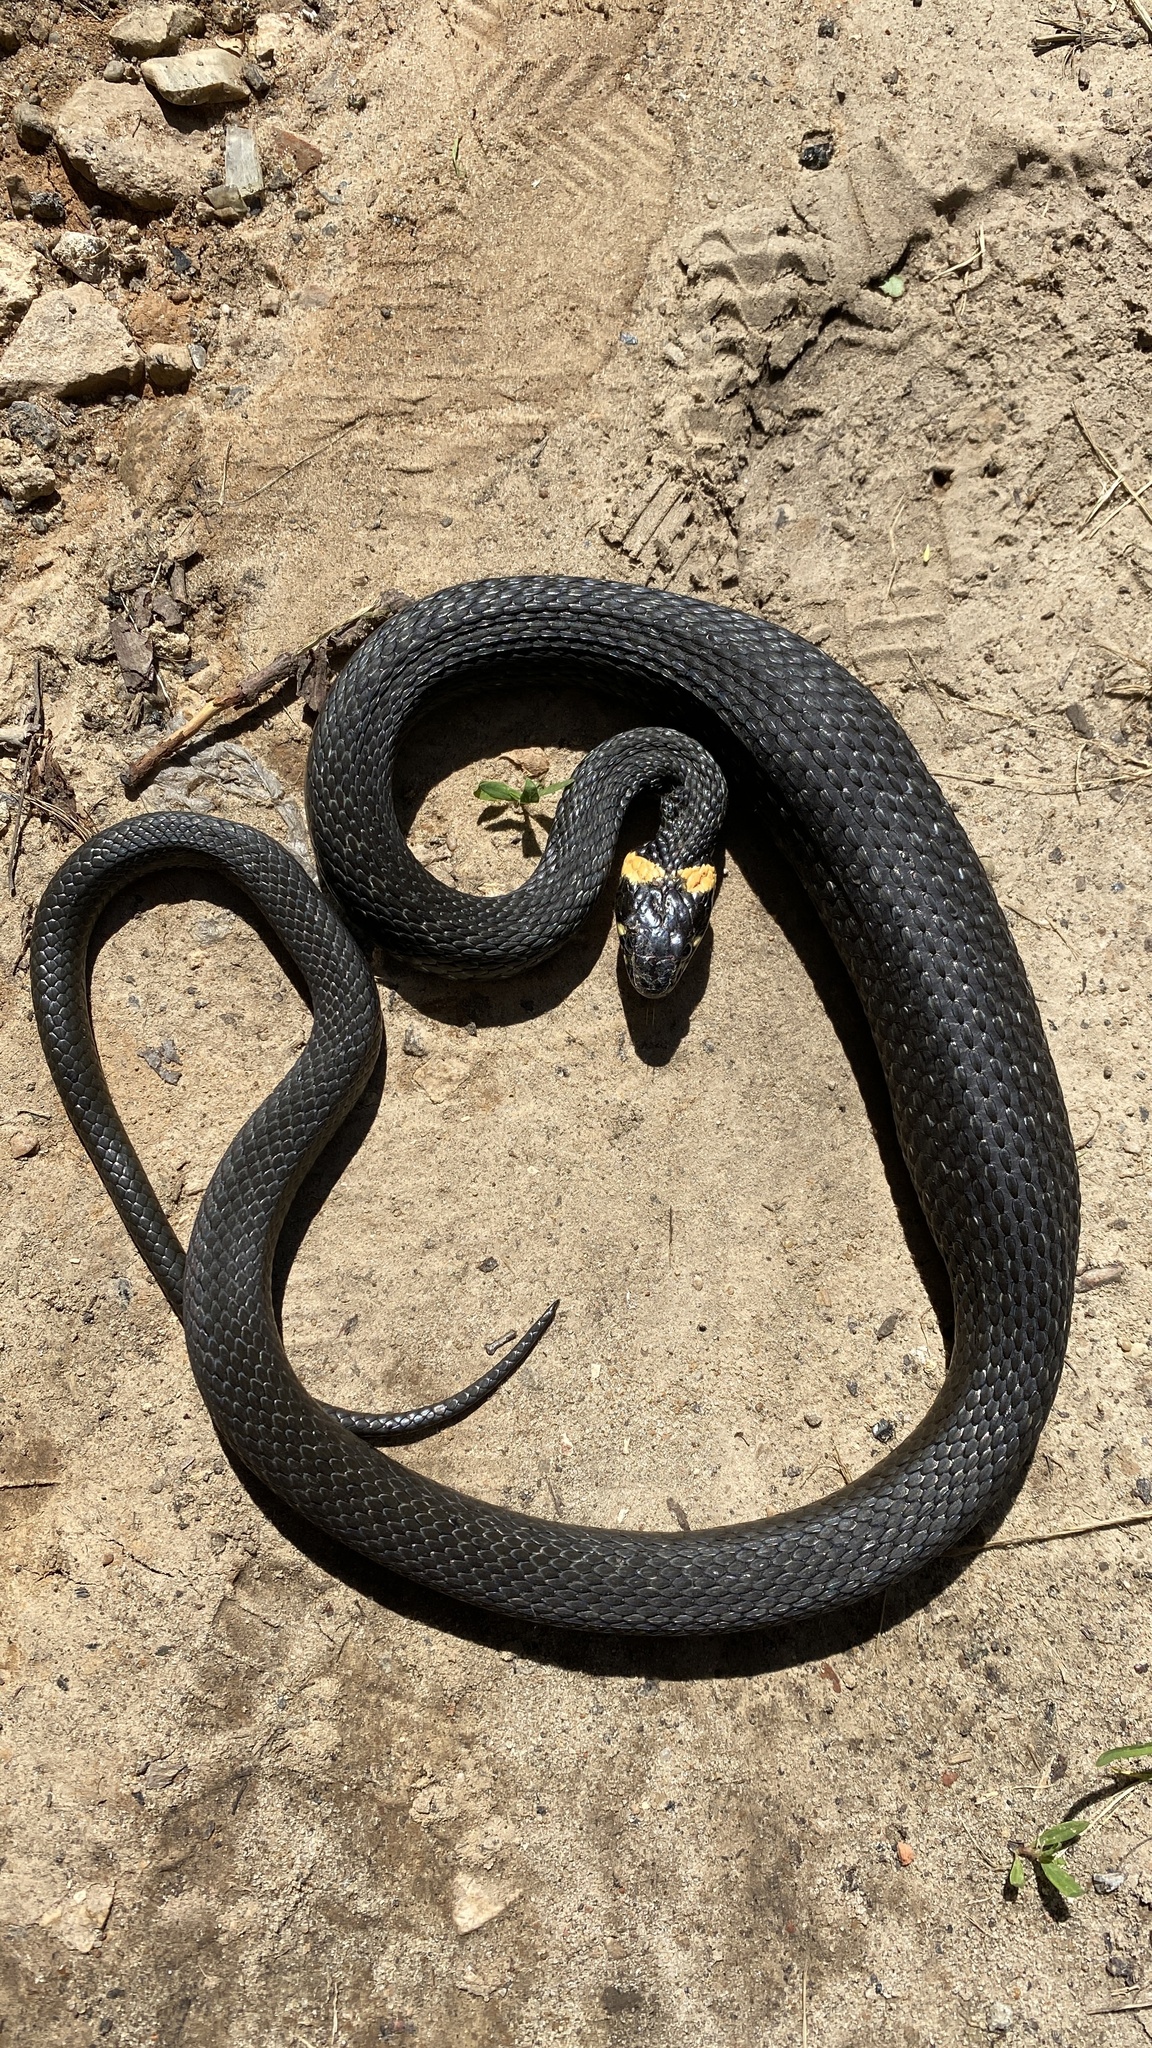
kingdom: Animalia
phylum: Chordata
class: Squamata
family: Colubridae
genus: Natrix
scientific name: Natrix natrix
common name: Grass snake
